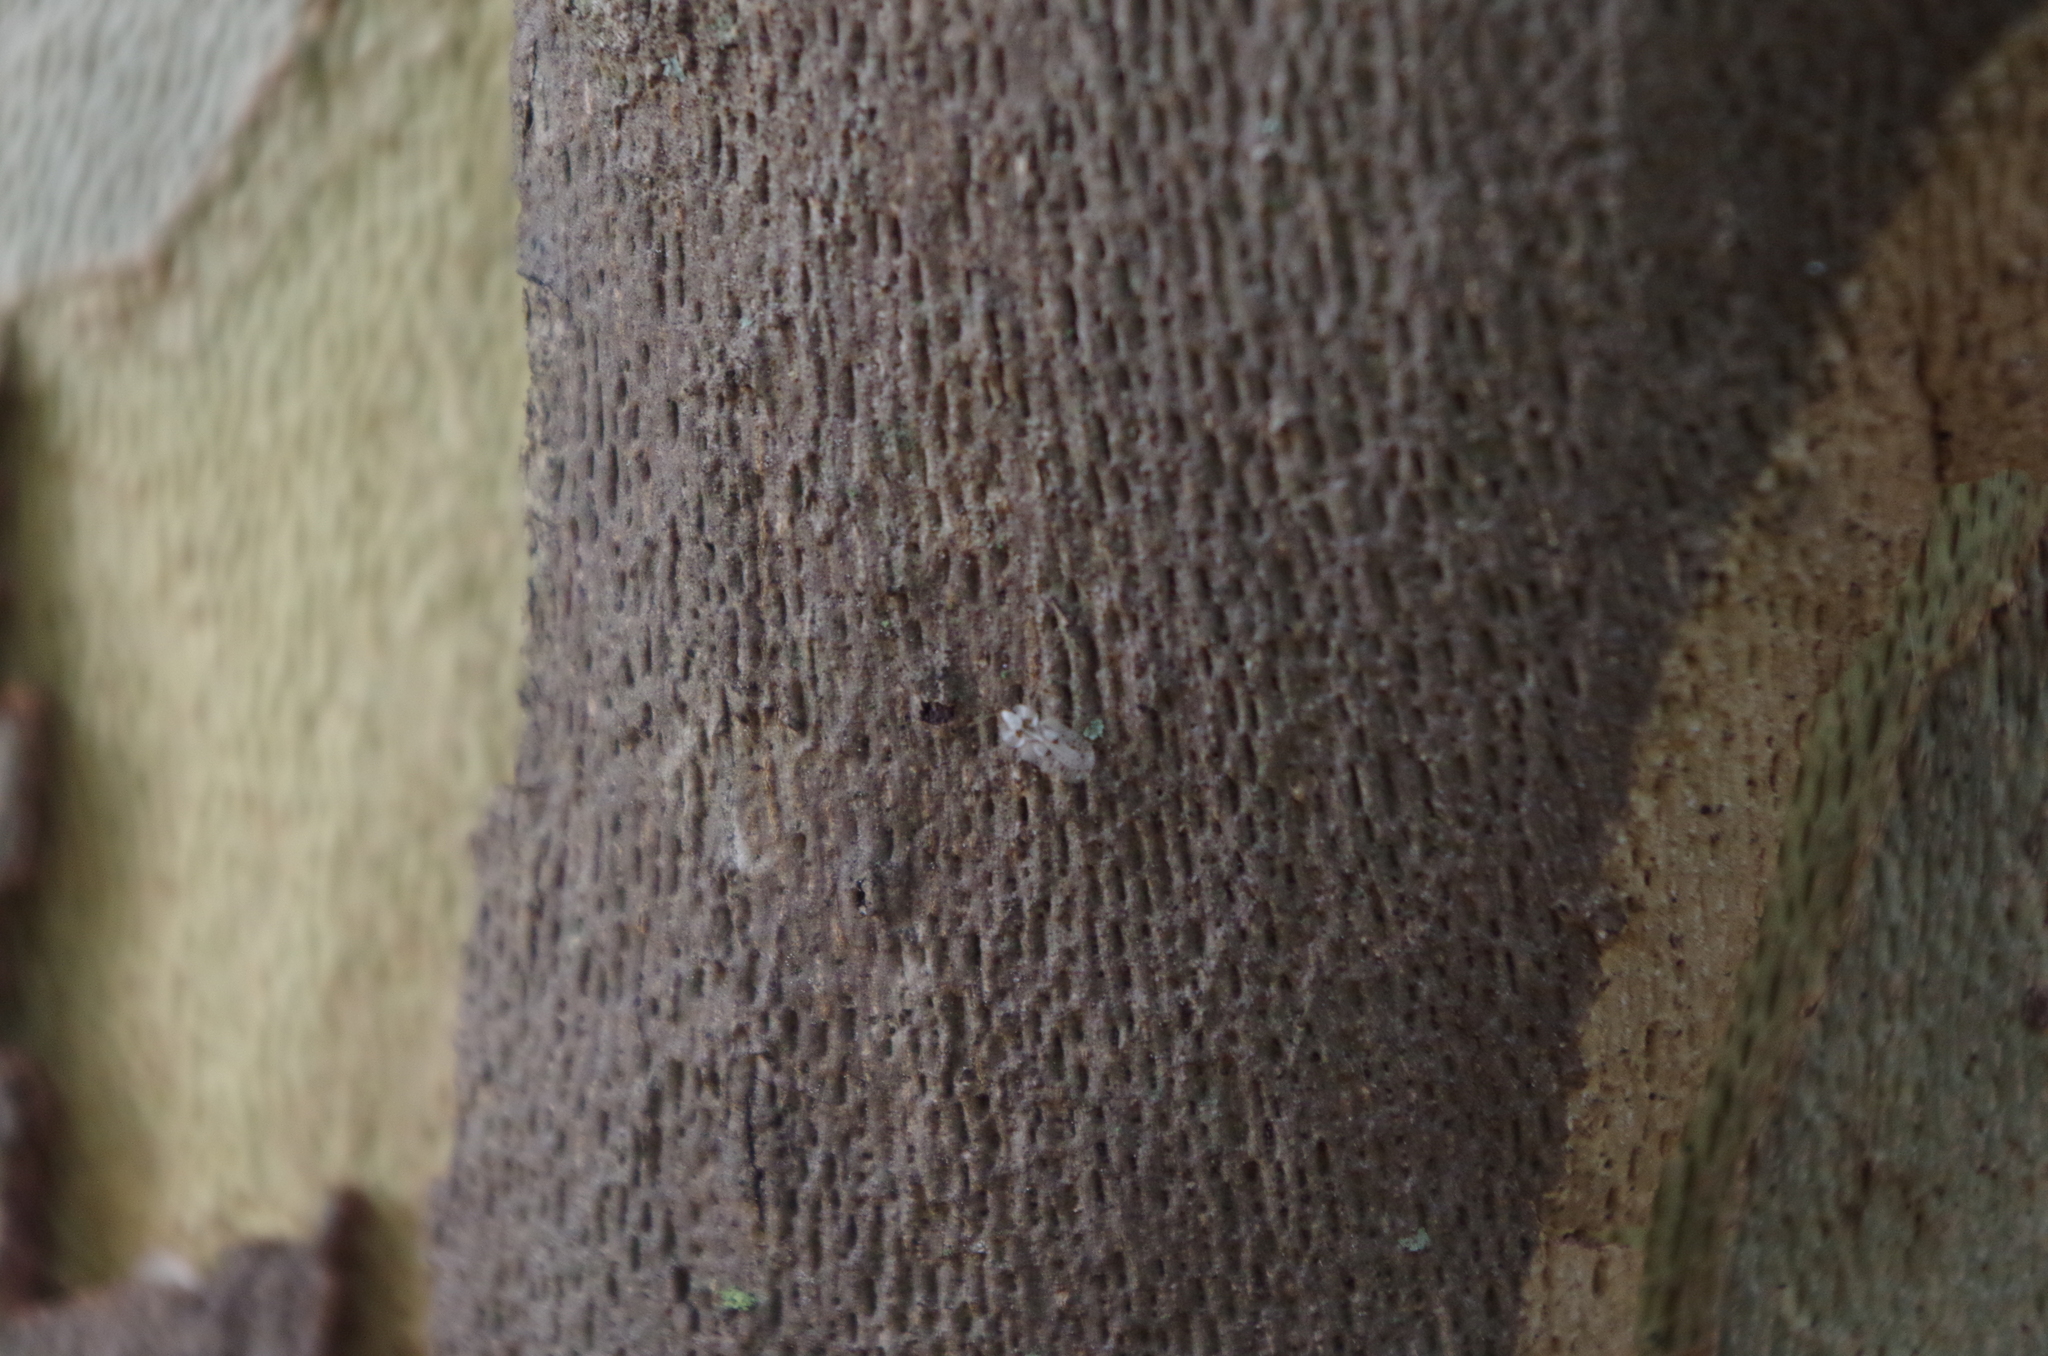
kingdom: Animalia
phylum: Arthropoda
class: Insecta
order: Hemiptera
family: Tingidae
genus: Corythucha
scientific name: Corythucha ciliata
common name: Sycamore lace bug
